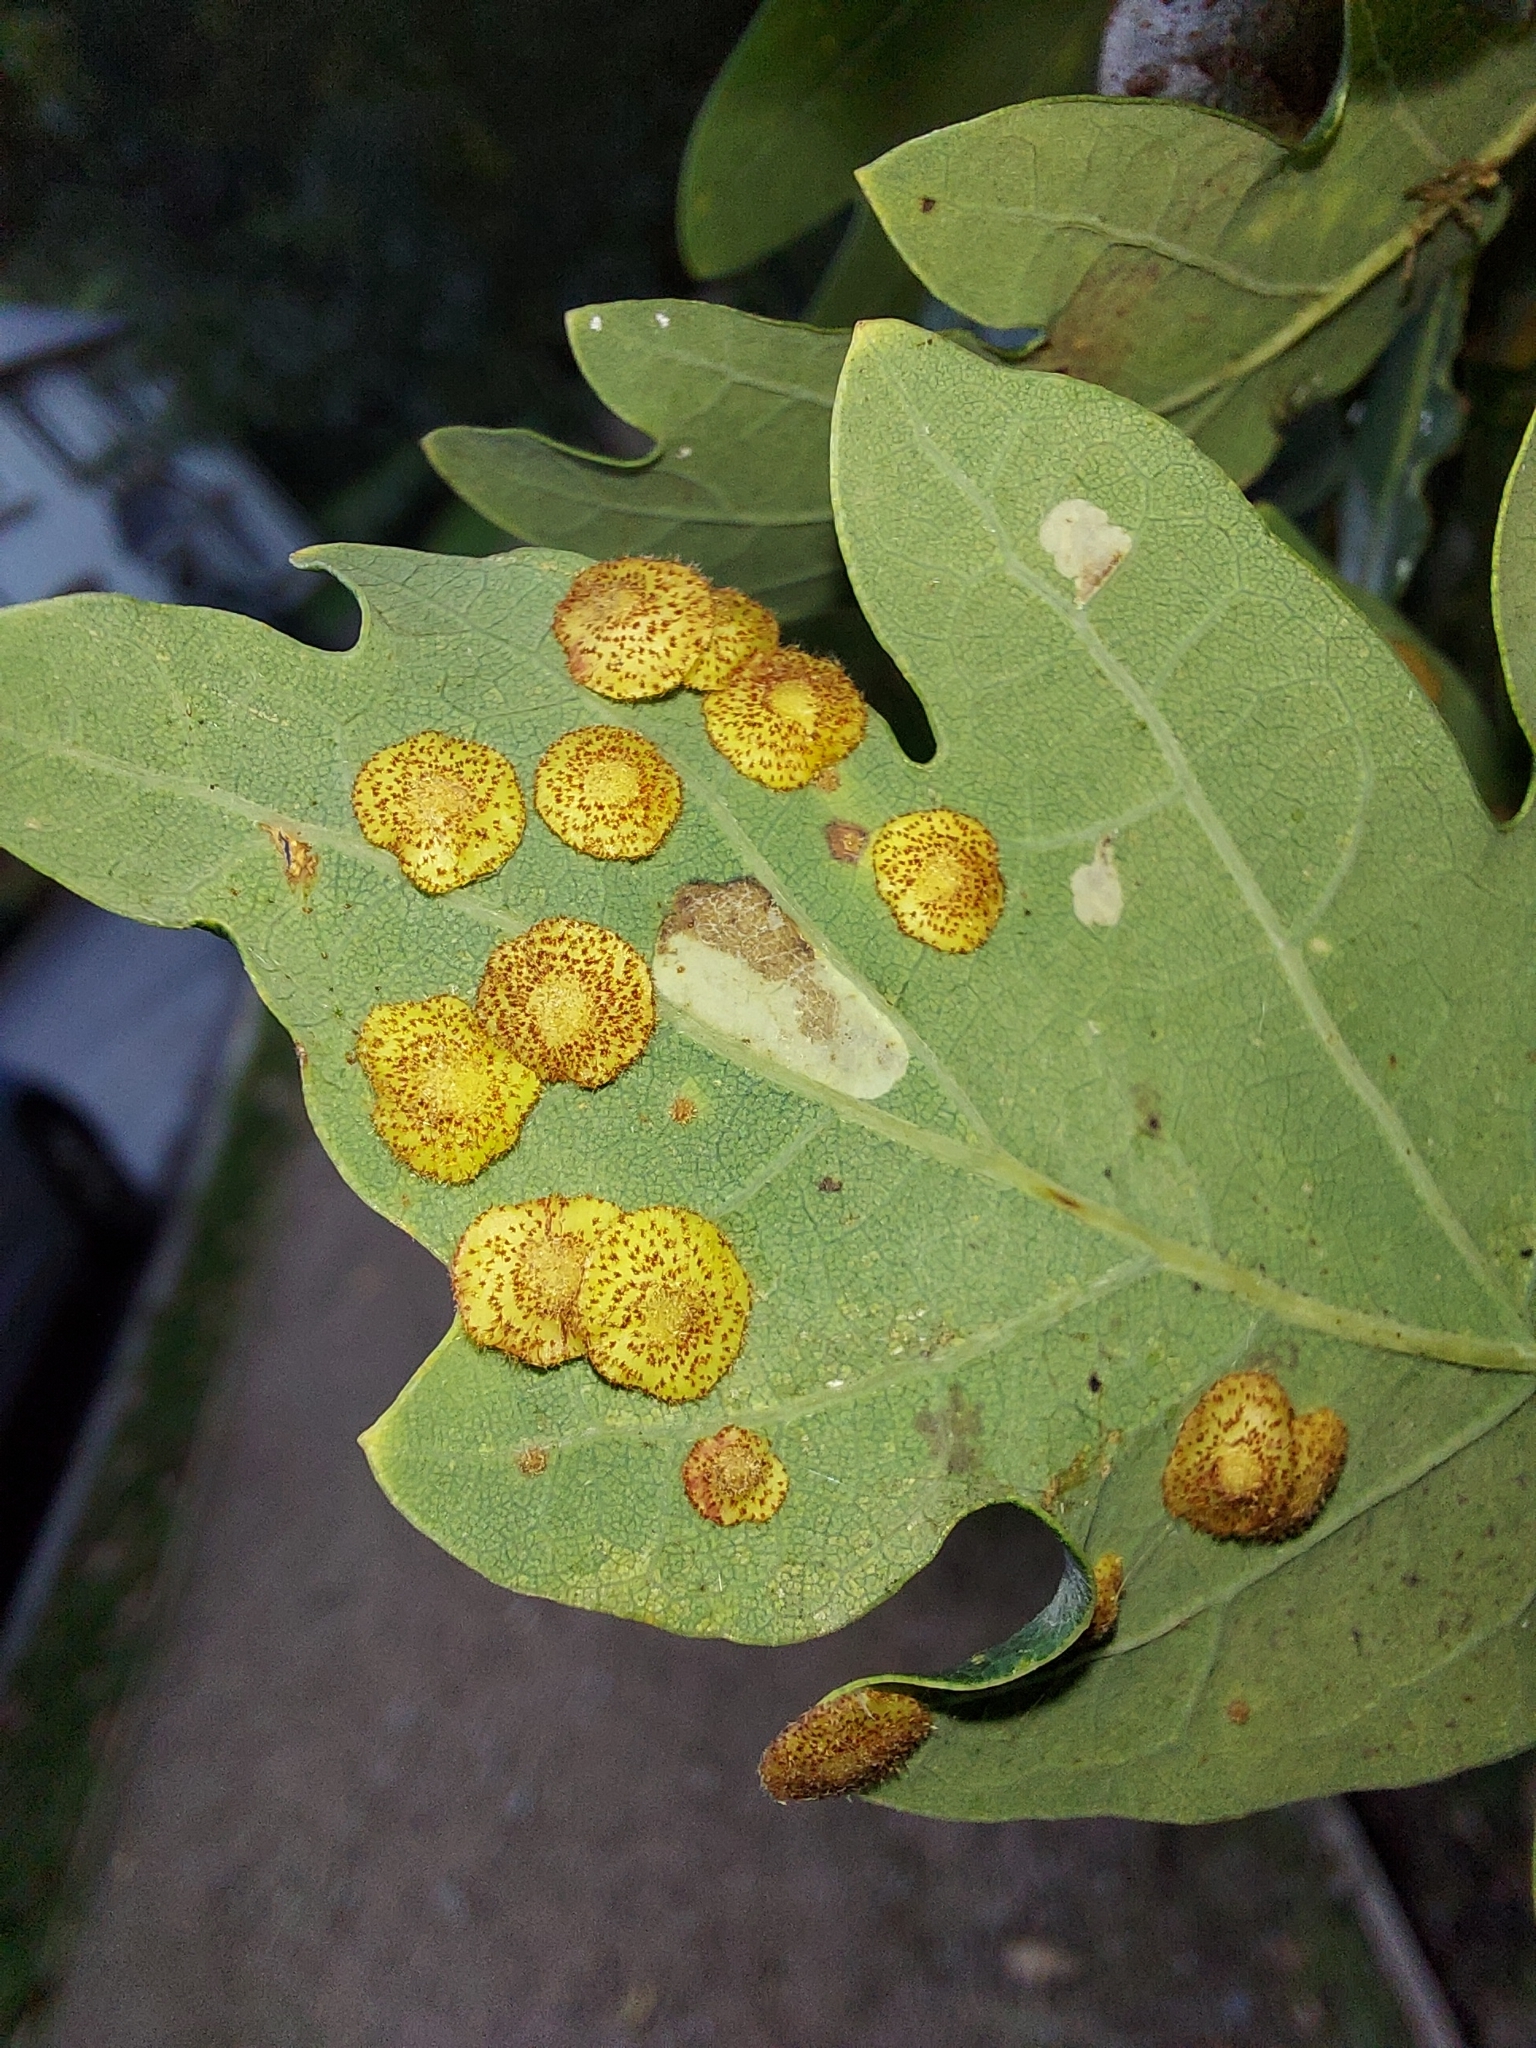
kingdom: Animalia
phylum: Arthropoda
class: Insecta
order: Hymenoptera
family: Cynipidae
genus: Neuroterus
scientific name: Neuroterus quercusbaccarum
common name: Common spangle gall
